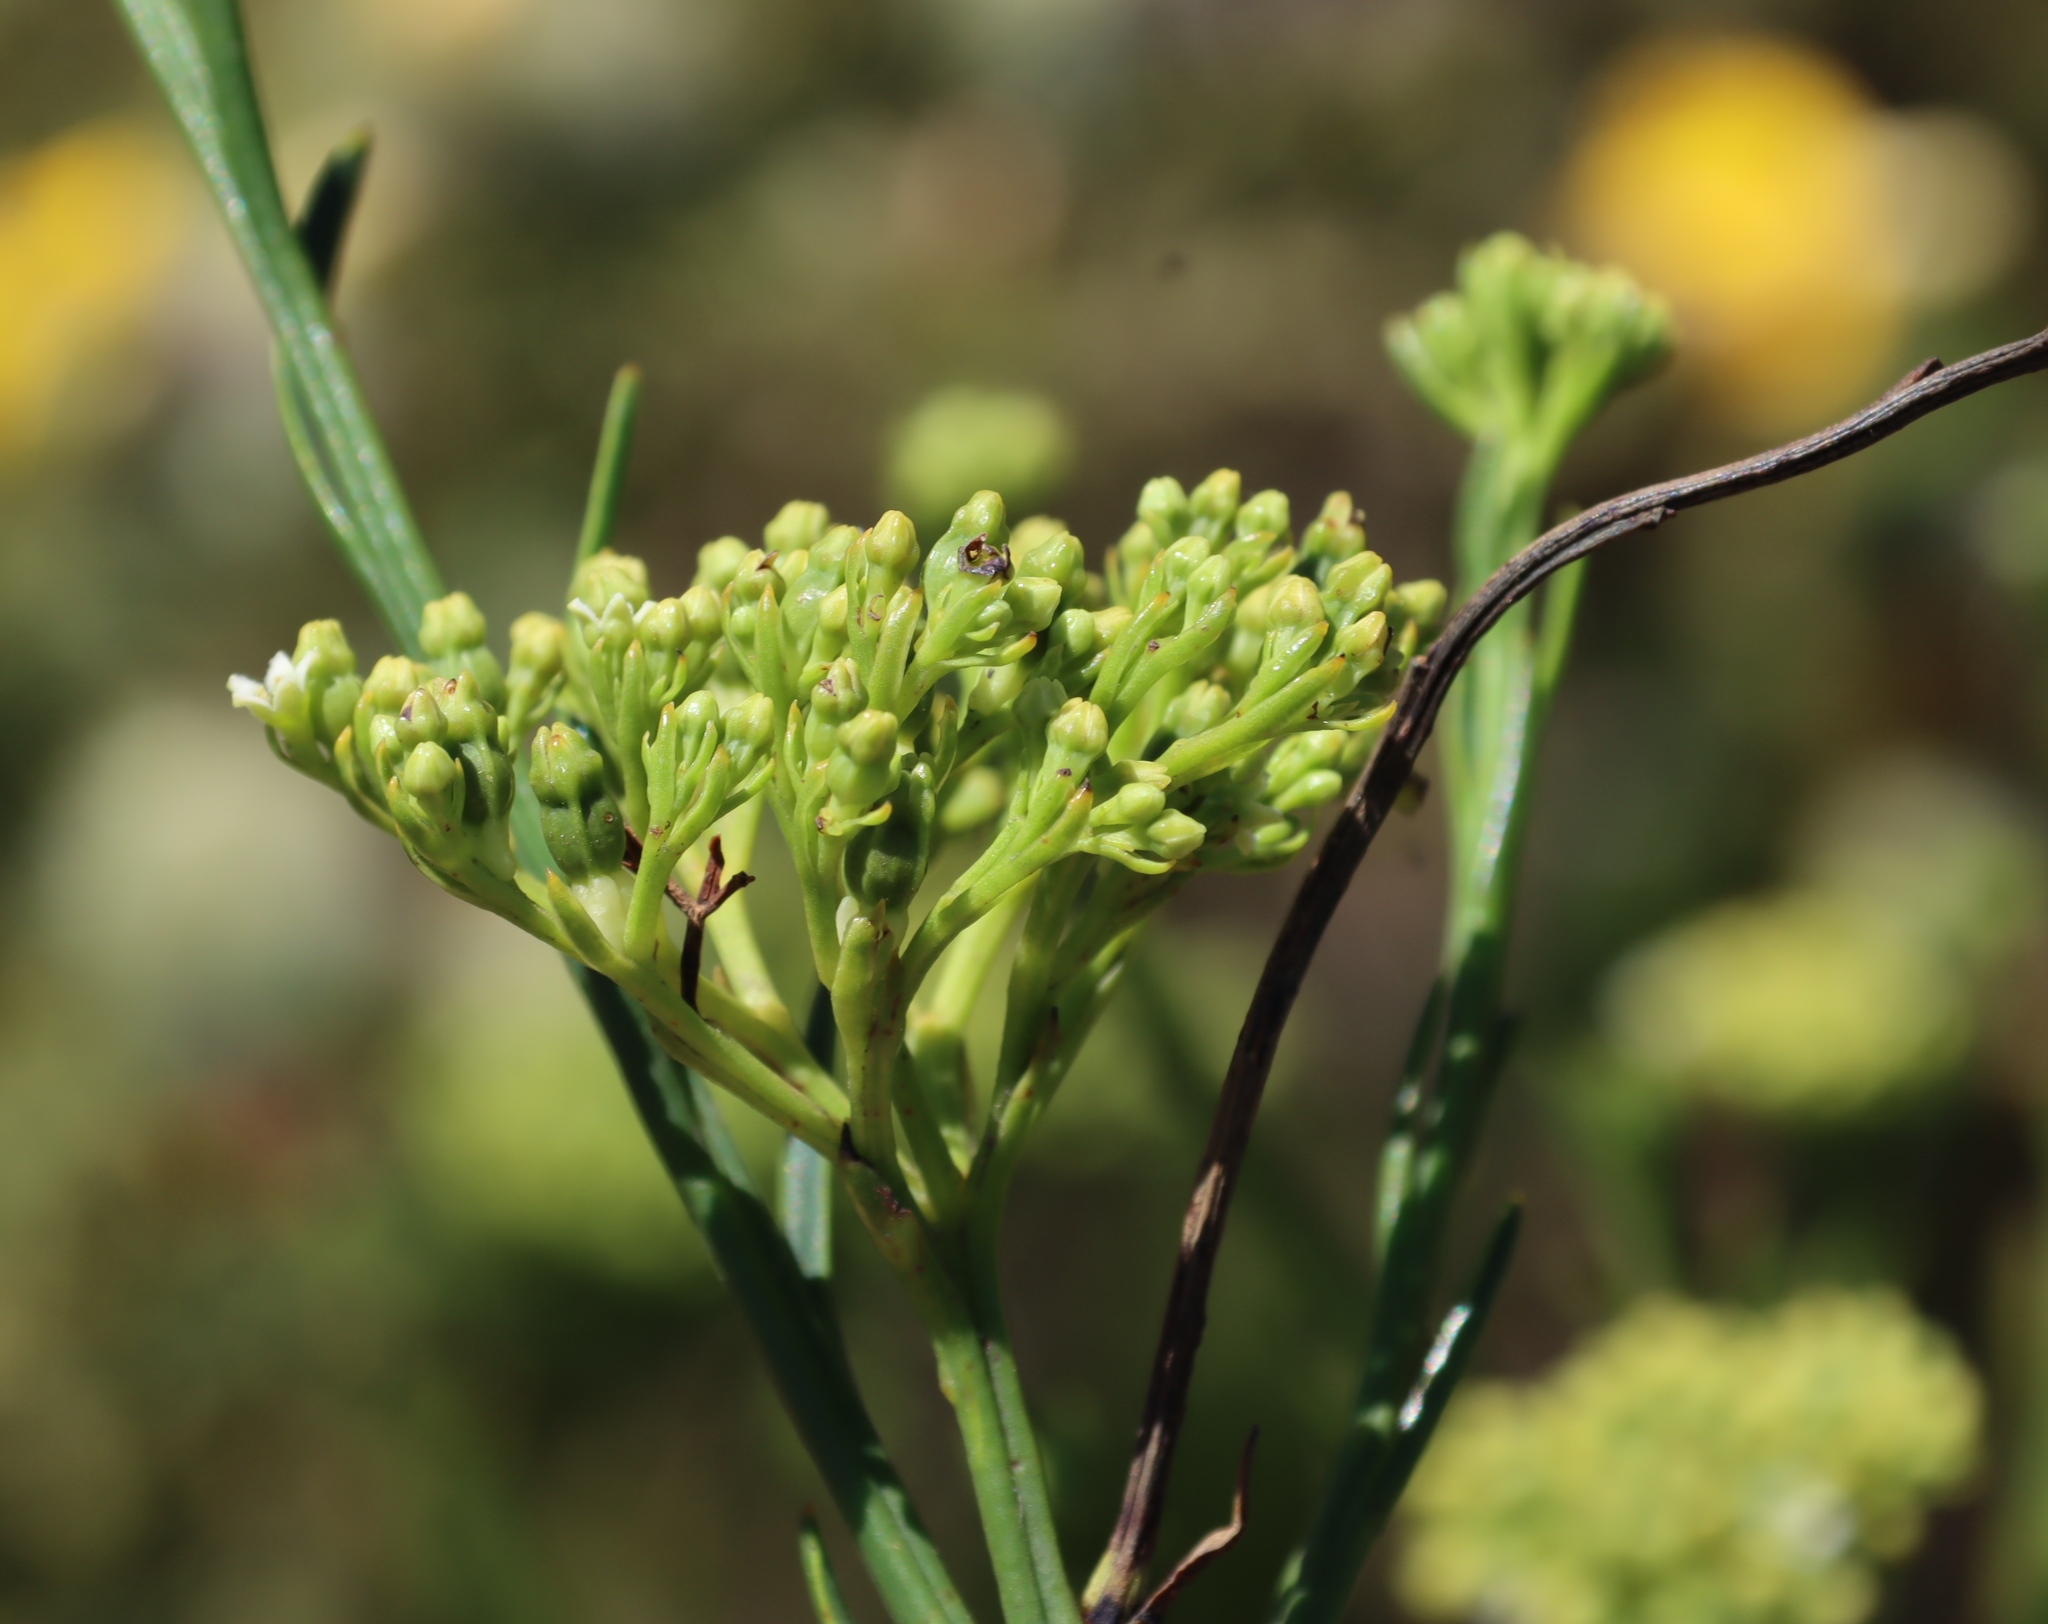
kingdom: Plantae
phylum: Tracheophyta
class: Magnoliopsida
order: Santalales
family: Thesiaceae
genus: Thesium
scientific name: Thesium strictum
